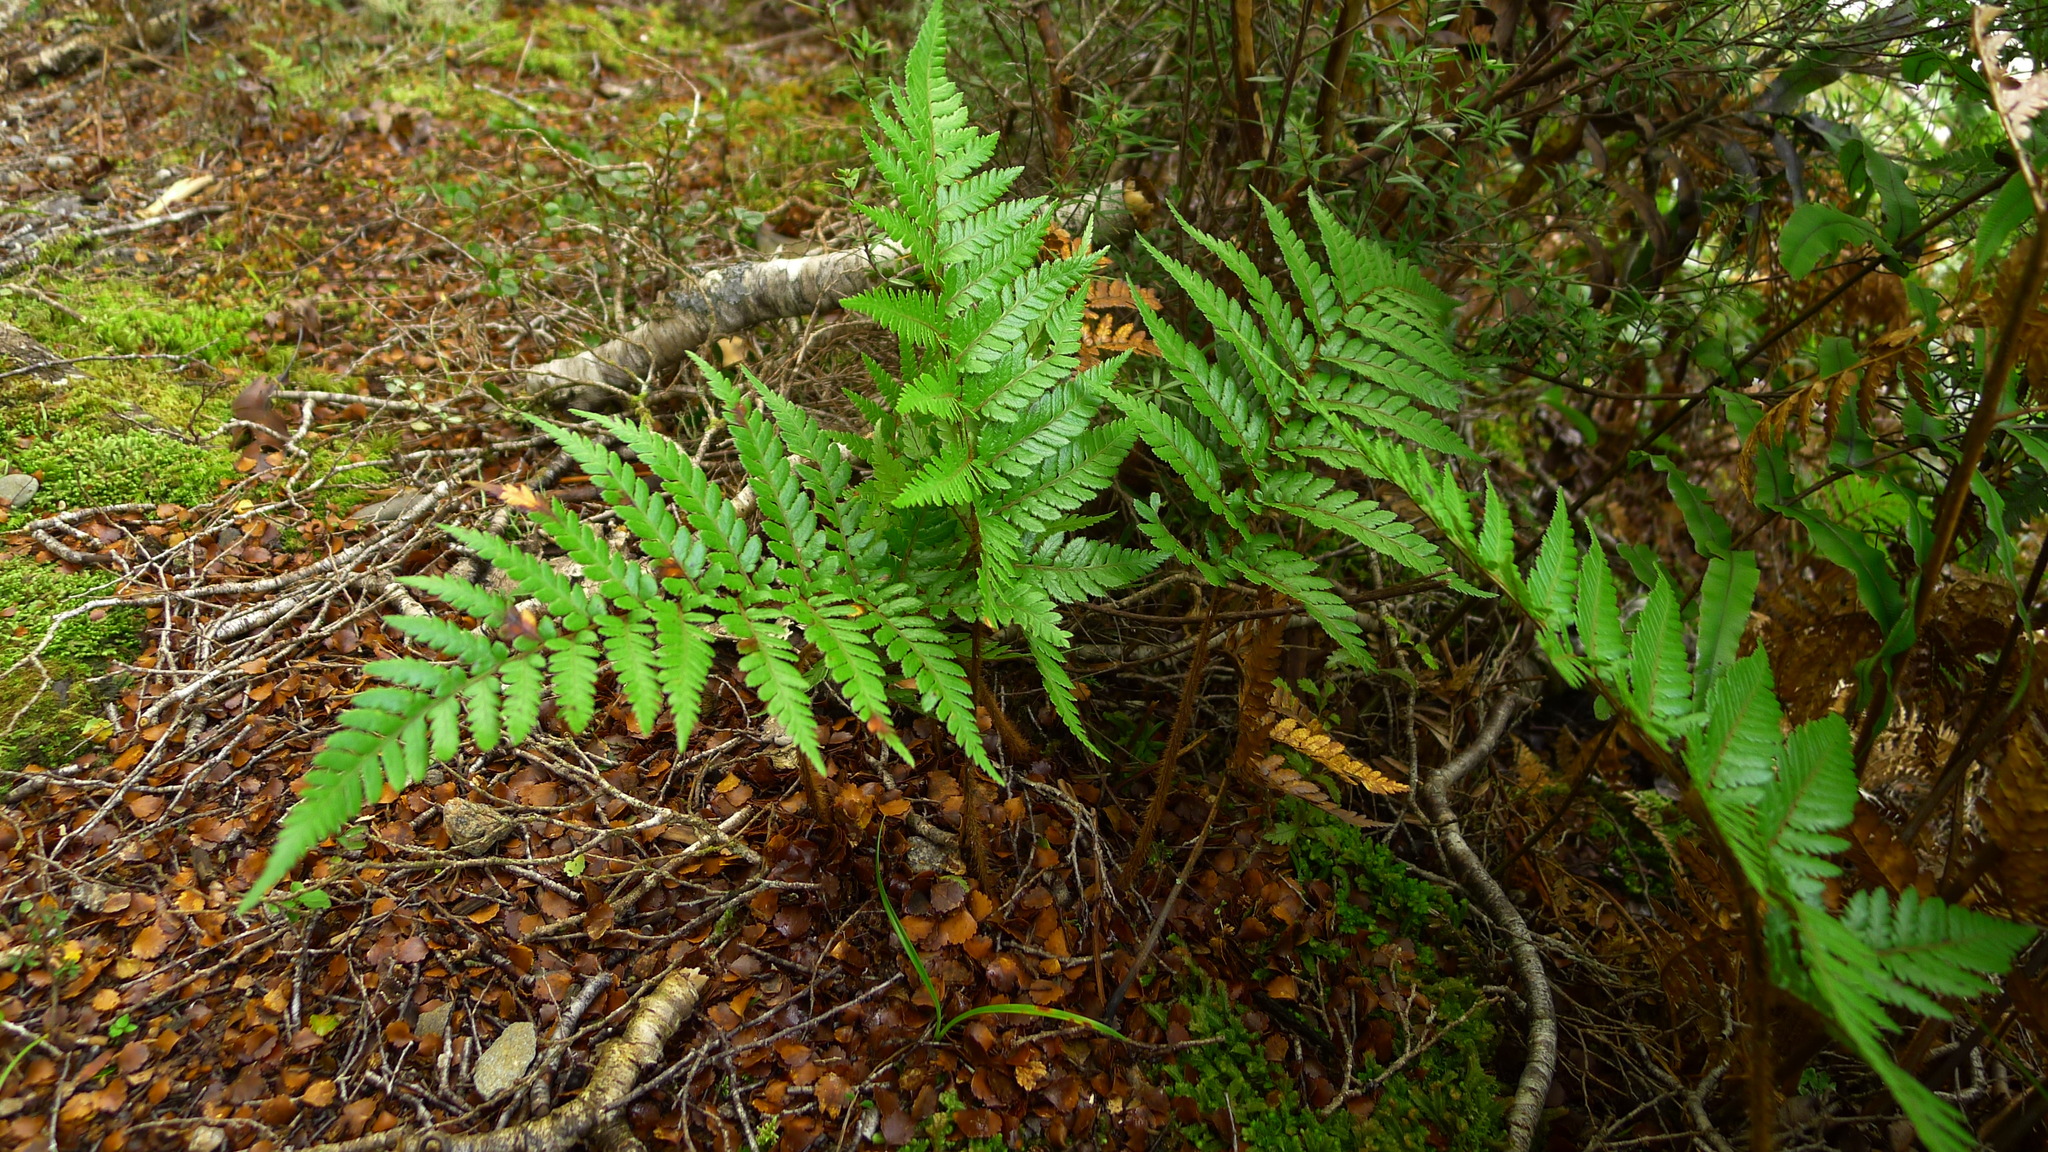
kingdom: Plantae
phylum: Tracheophyta
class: Polypodiopsida
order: Cyatheales
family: Dicksoniaceae
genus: Dicksonia
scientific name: Dicksonia lanata
